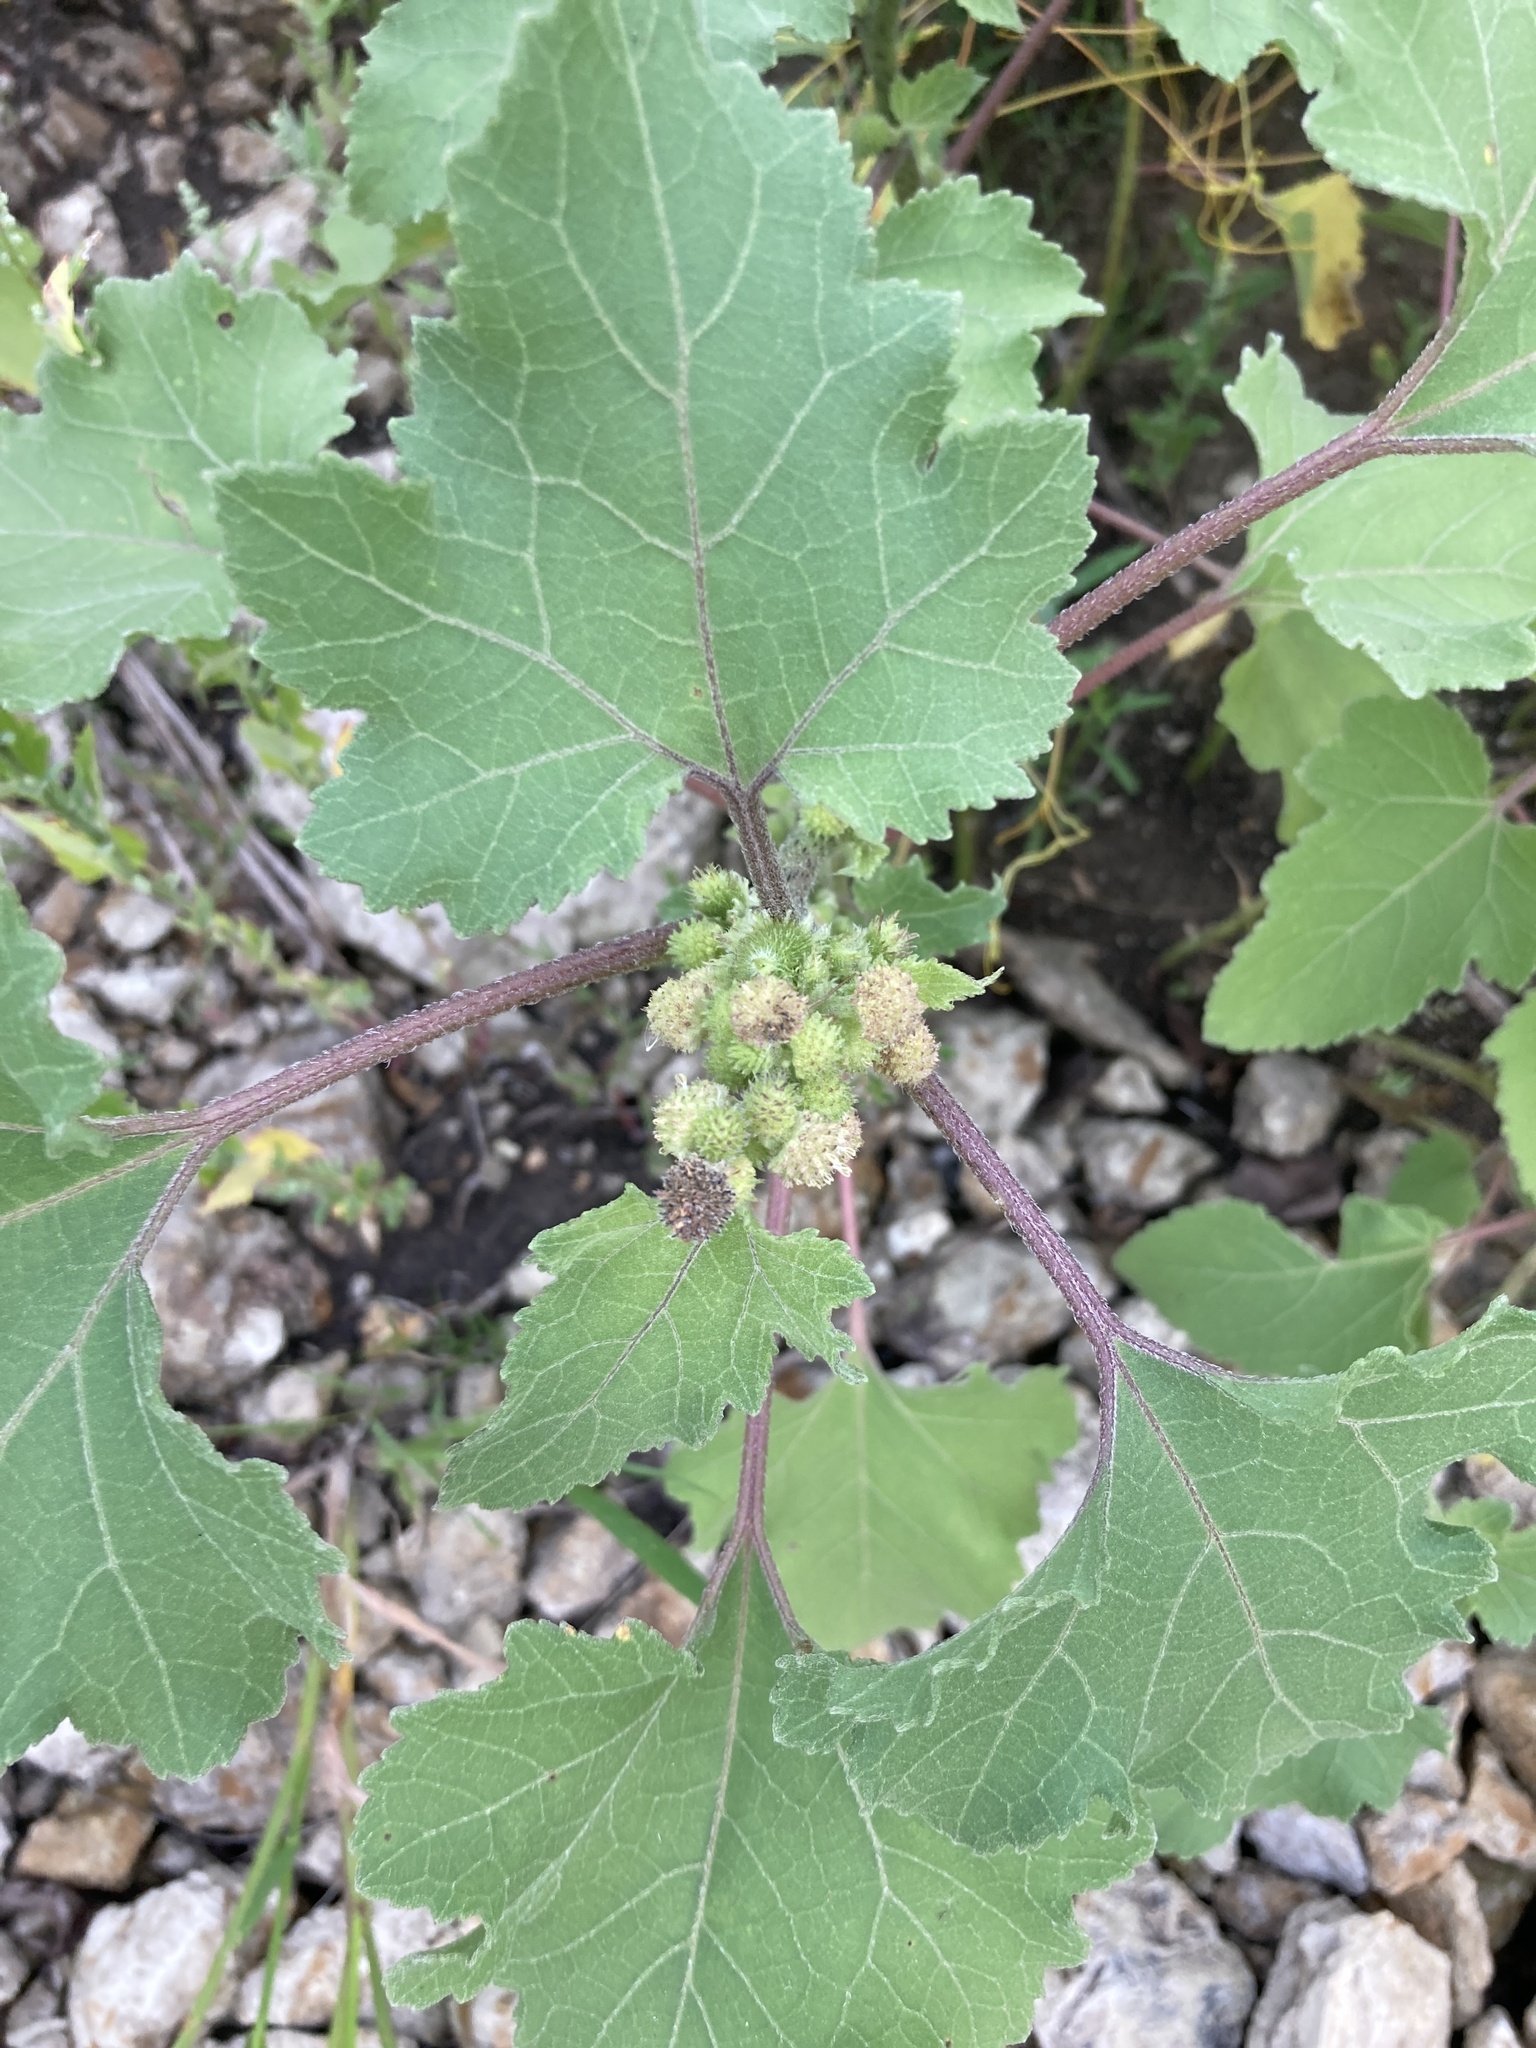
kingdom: Plantae
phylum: Tracheophyta
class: Magnoliopsida
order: Asterales
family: Asteraceae
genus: Xanthium
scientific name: Xanthium orientale
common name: Californian burr
